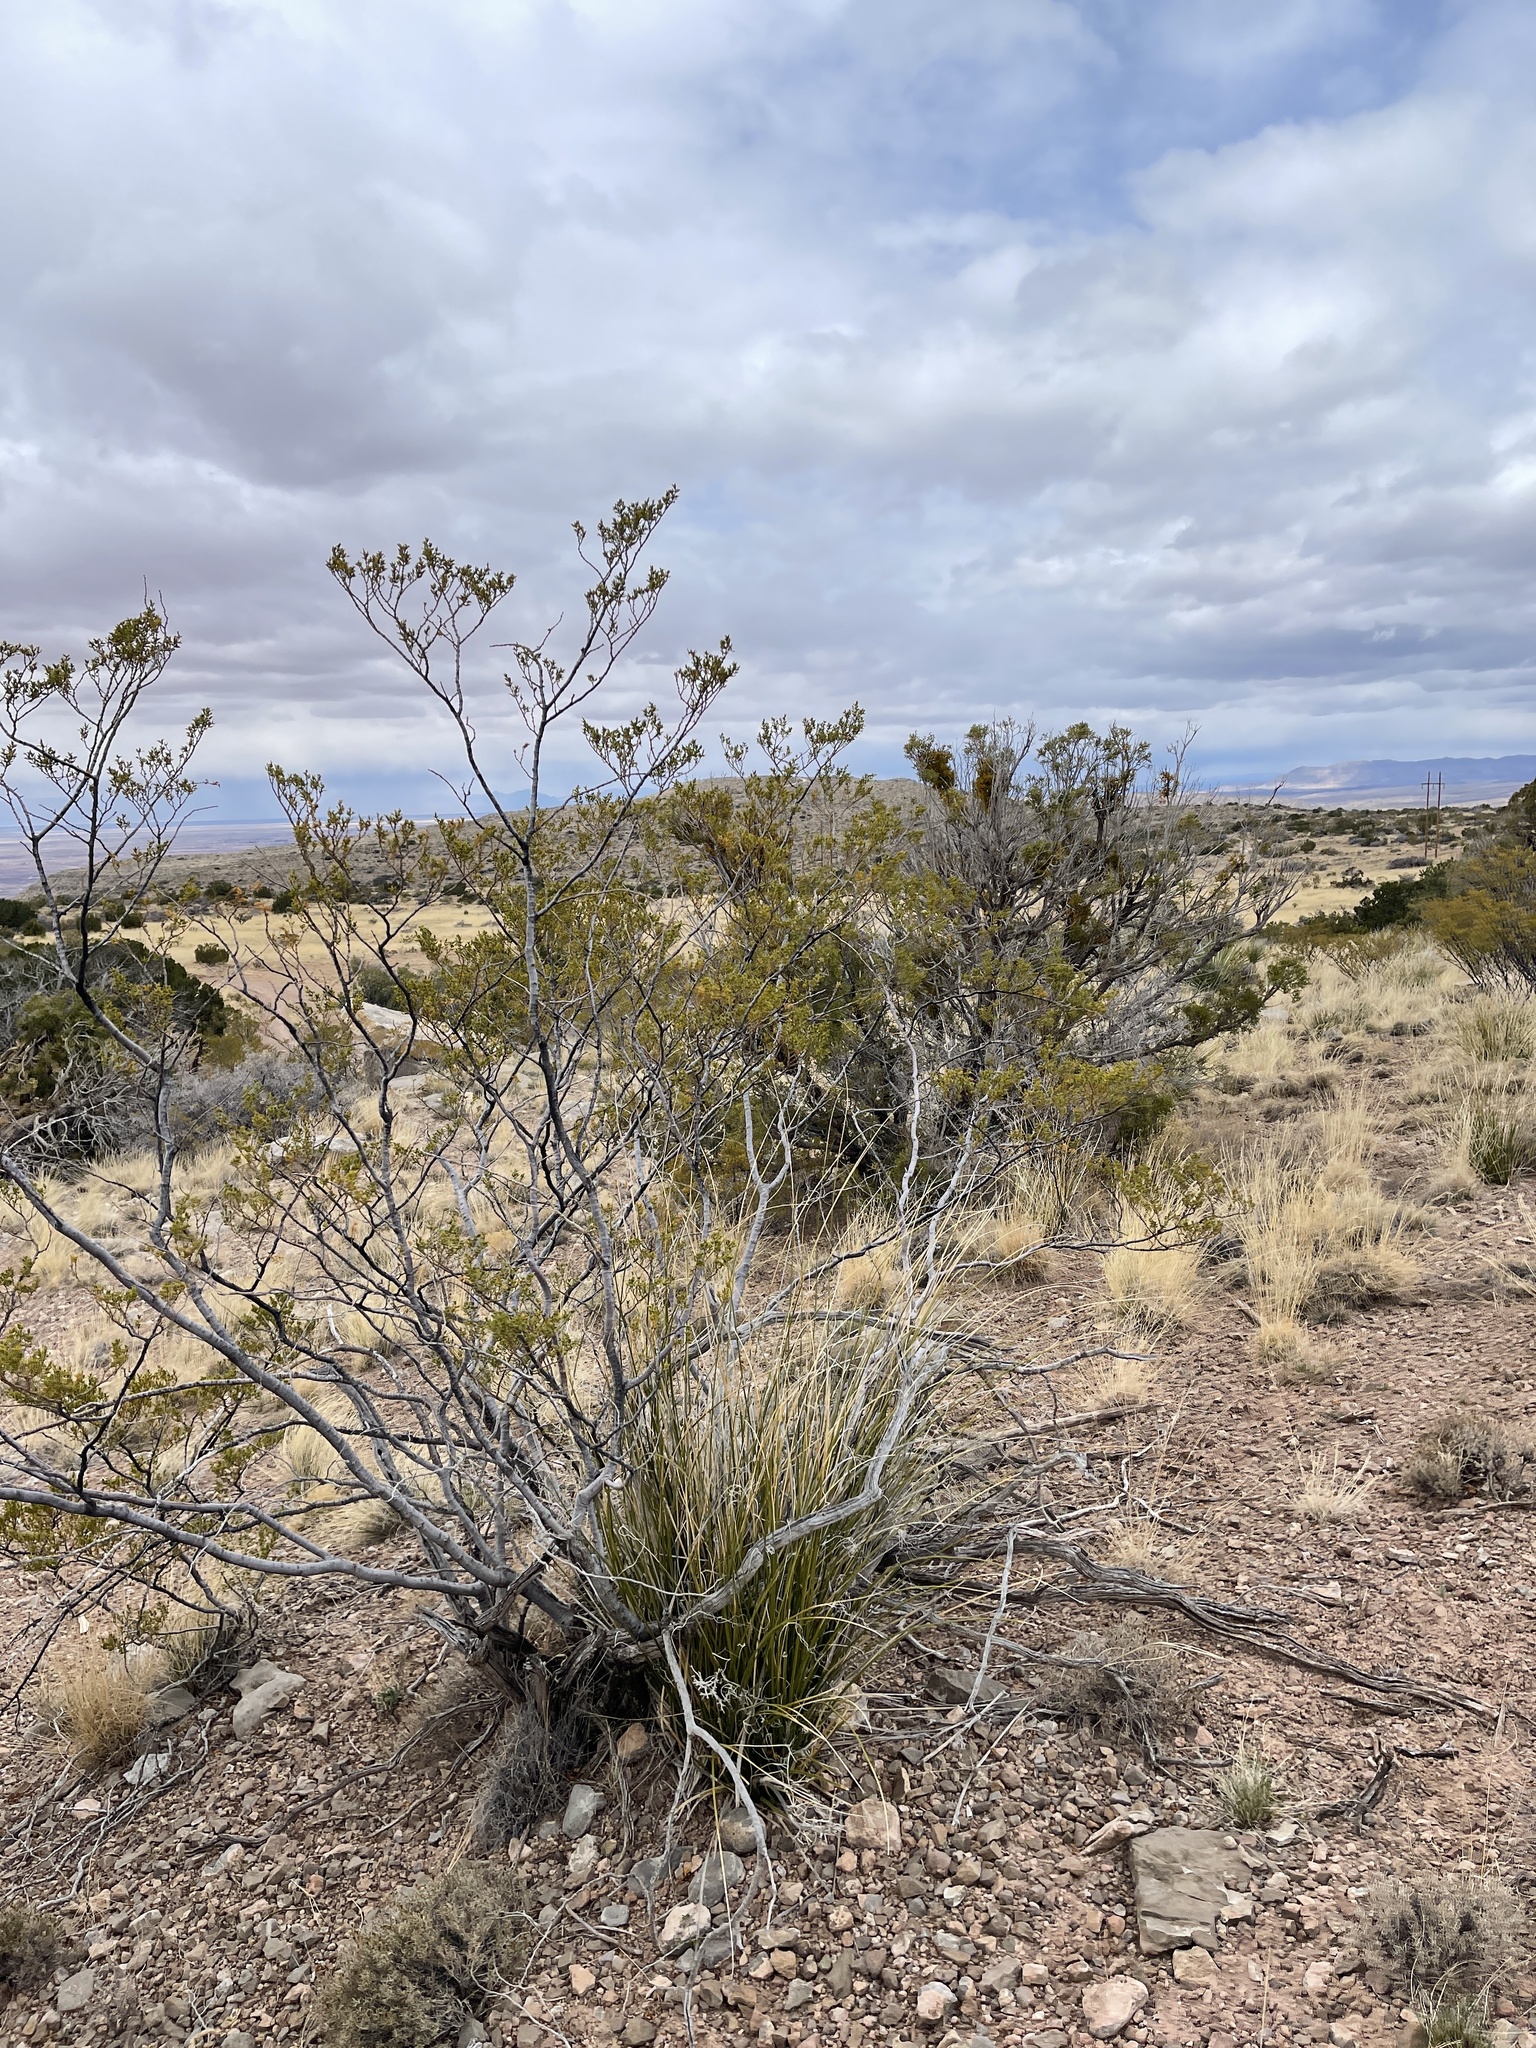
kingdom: Plantae
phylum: Tracheophyta
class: Magnoliopsida
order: Zygophyllales
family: Zygophyllaceae
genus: Larrea
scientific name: Larrea tridentata
